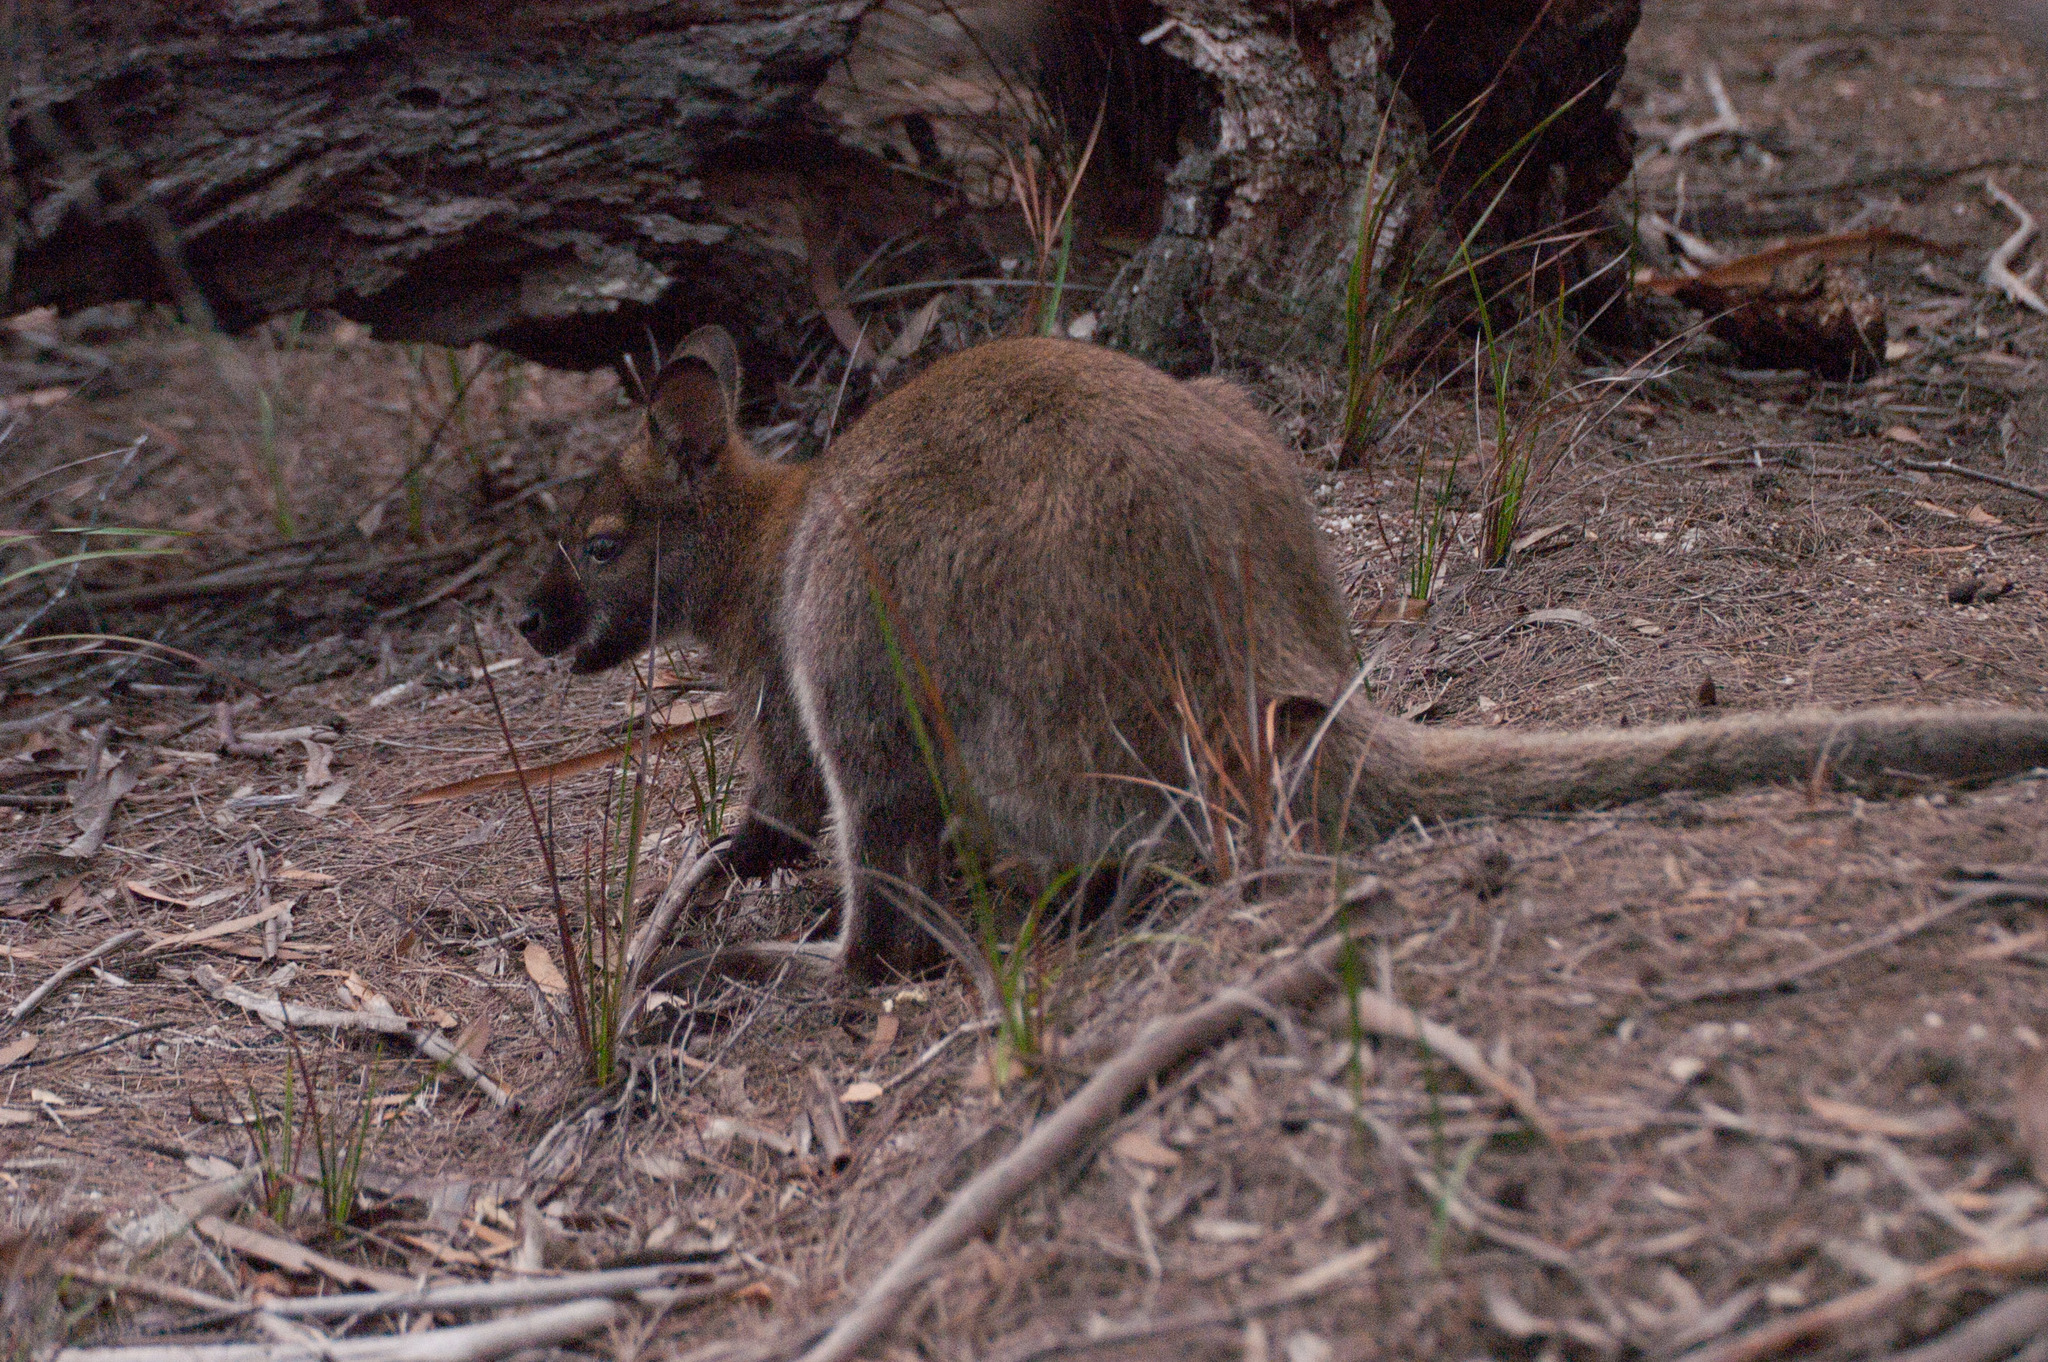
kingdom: Animalia
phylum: Chordata
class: Mammalia
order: Diprotodontia
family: Macropodidae
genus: Notamacropus
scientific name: Notamacropus rufogriseus
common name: Red-necked wallaby
